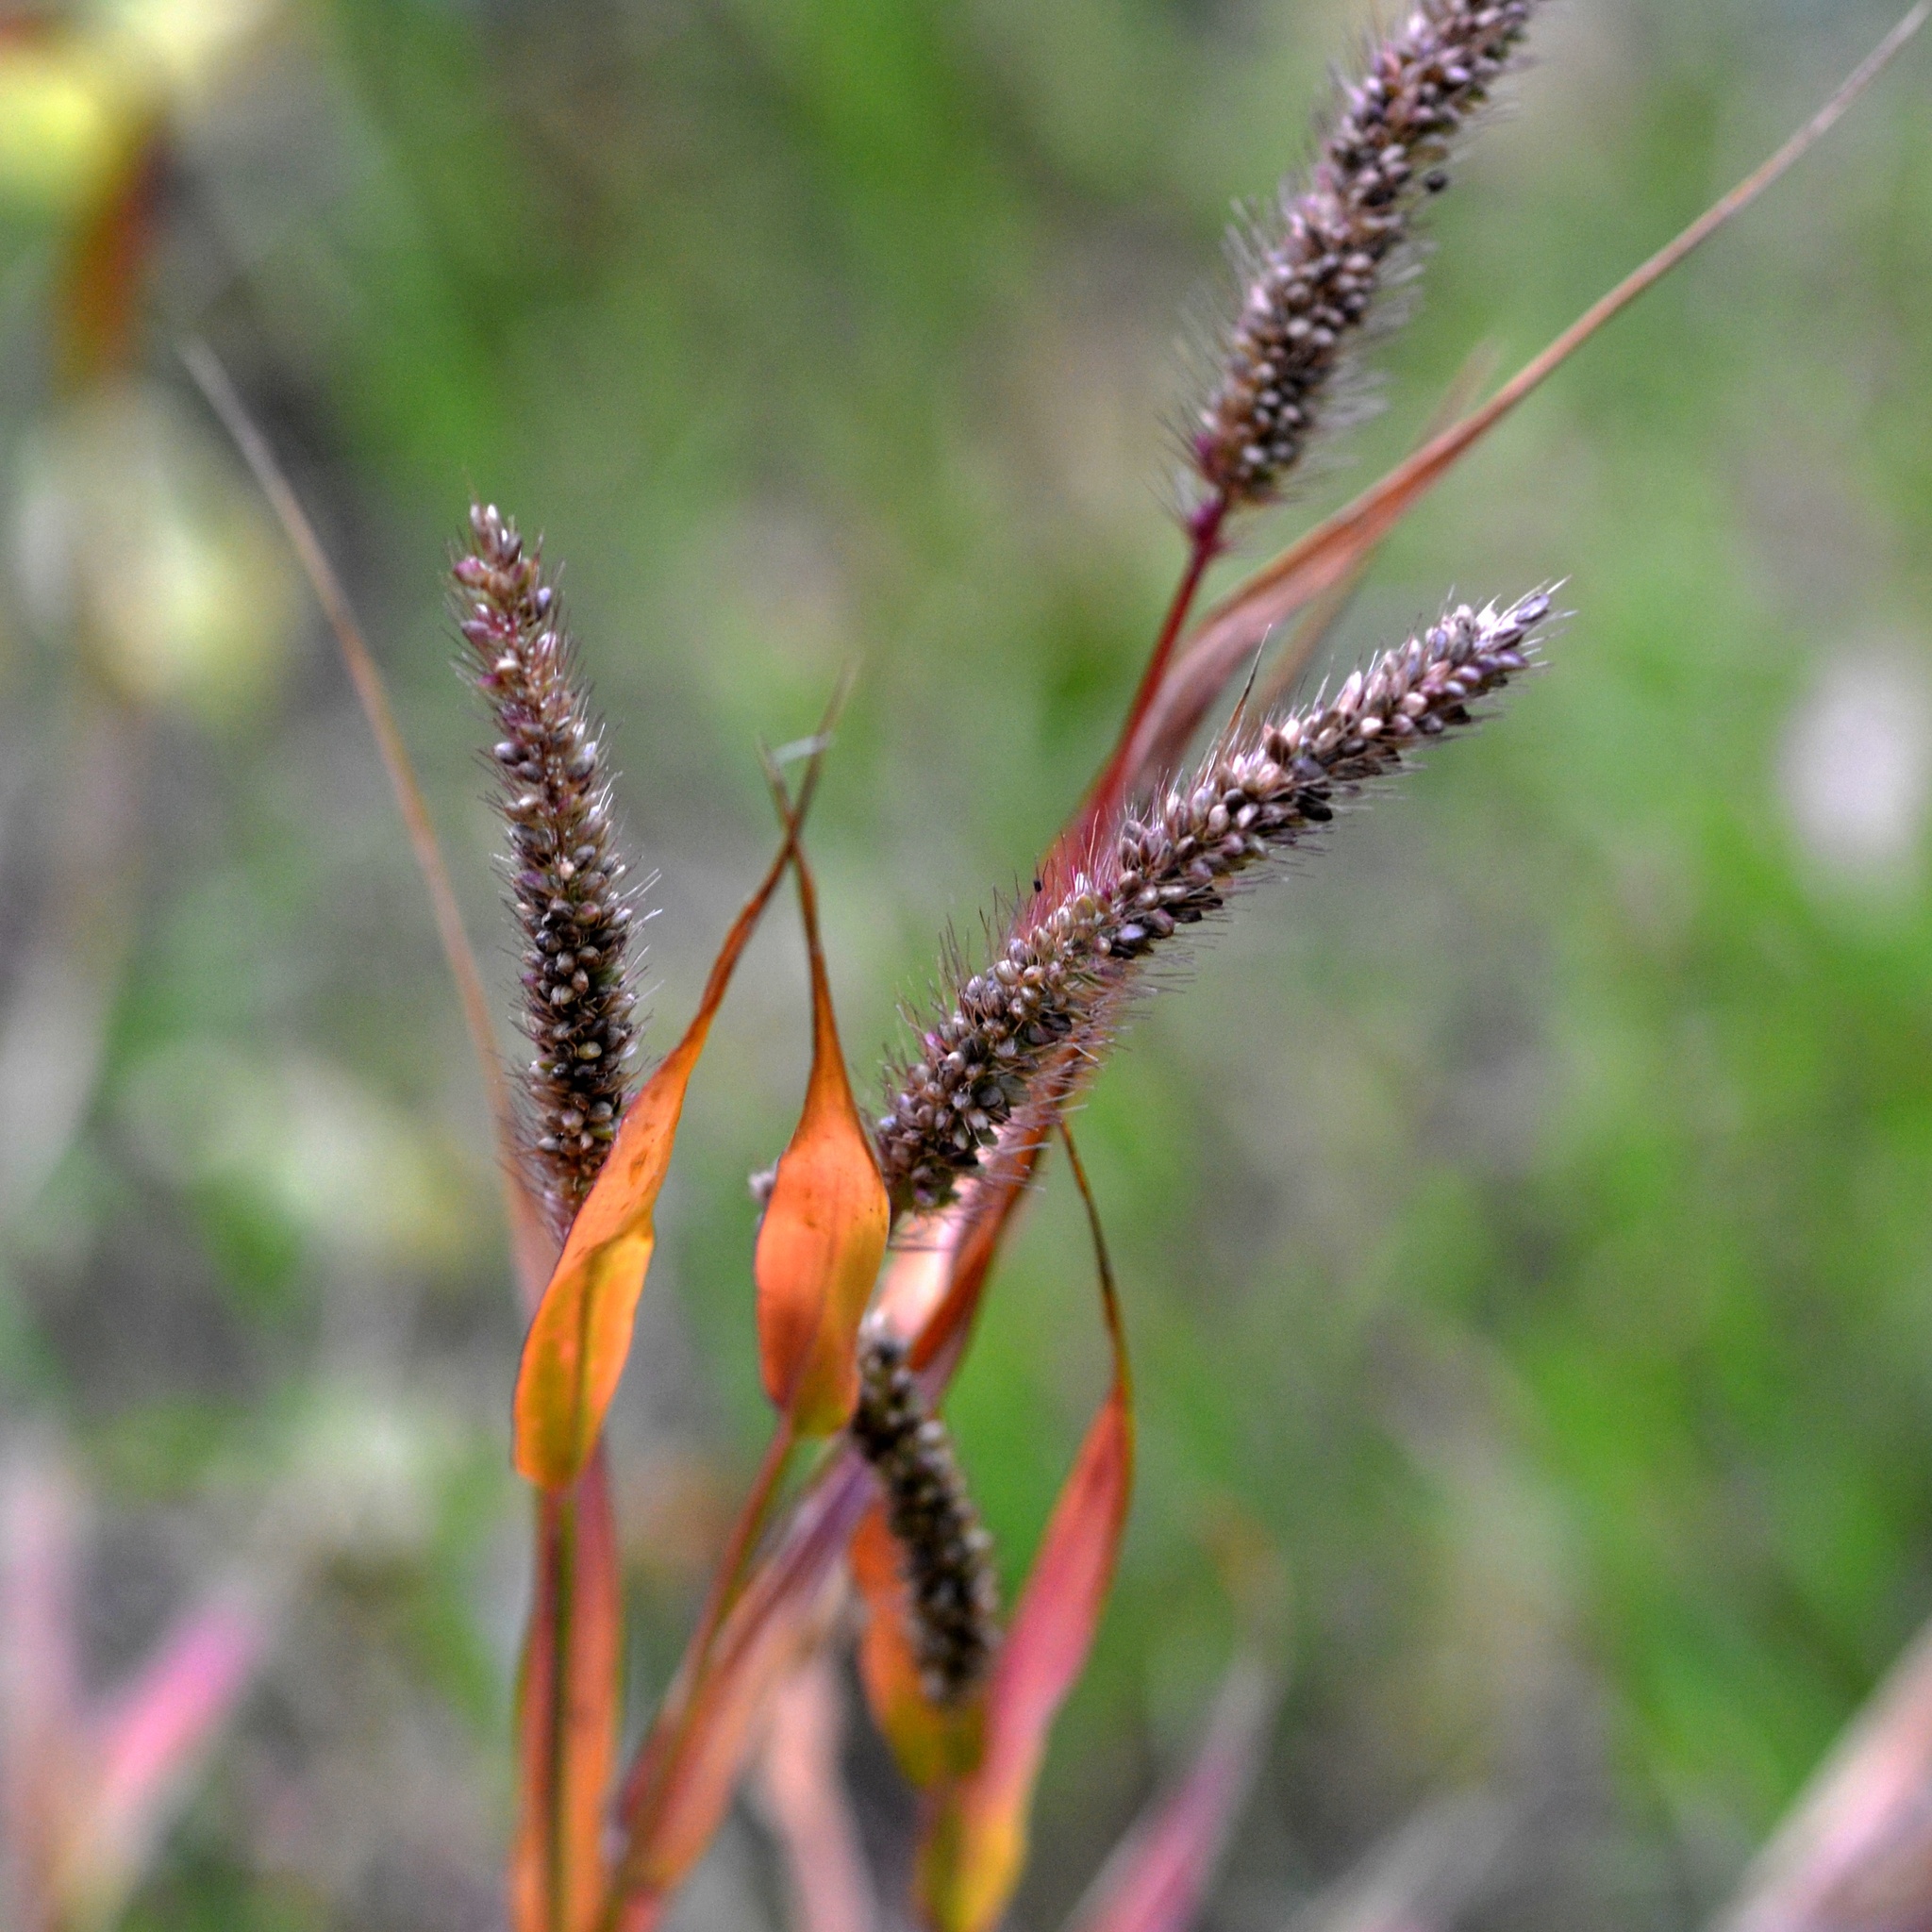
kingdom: Plantae
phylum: Tracheophyta
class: Liliopsida
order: Poales
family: Poaceae
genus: Setaria
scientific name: Setaria viridis
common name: Green bristlegrass
